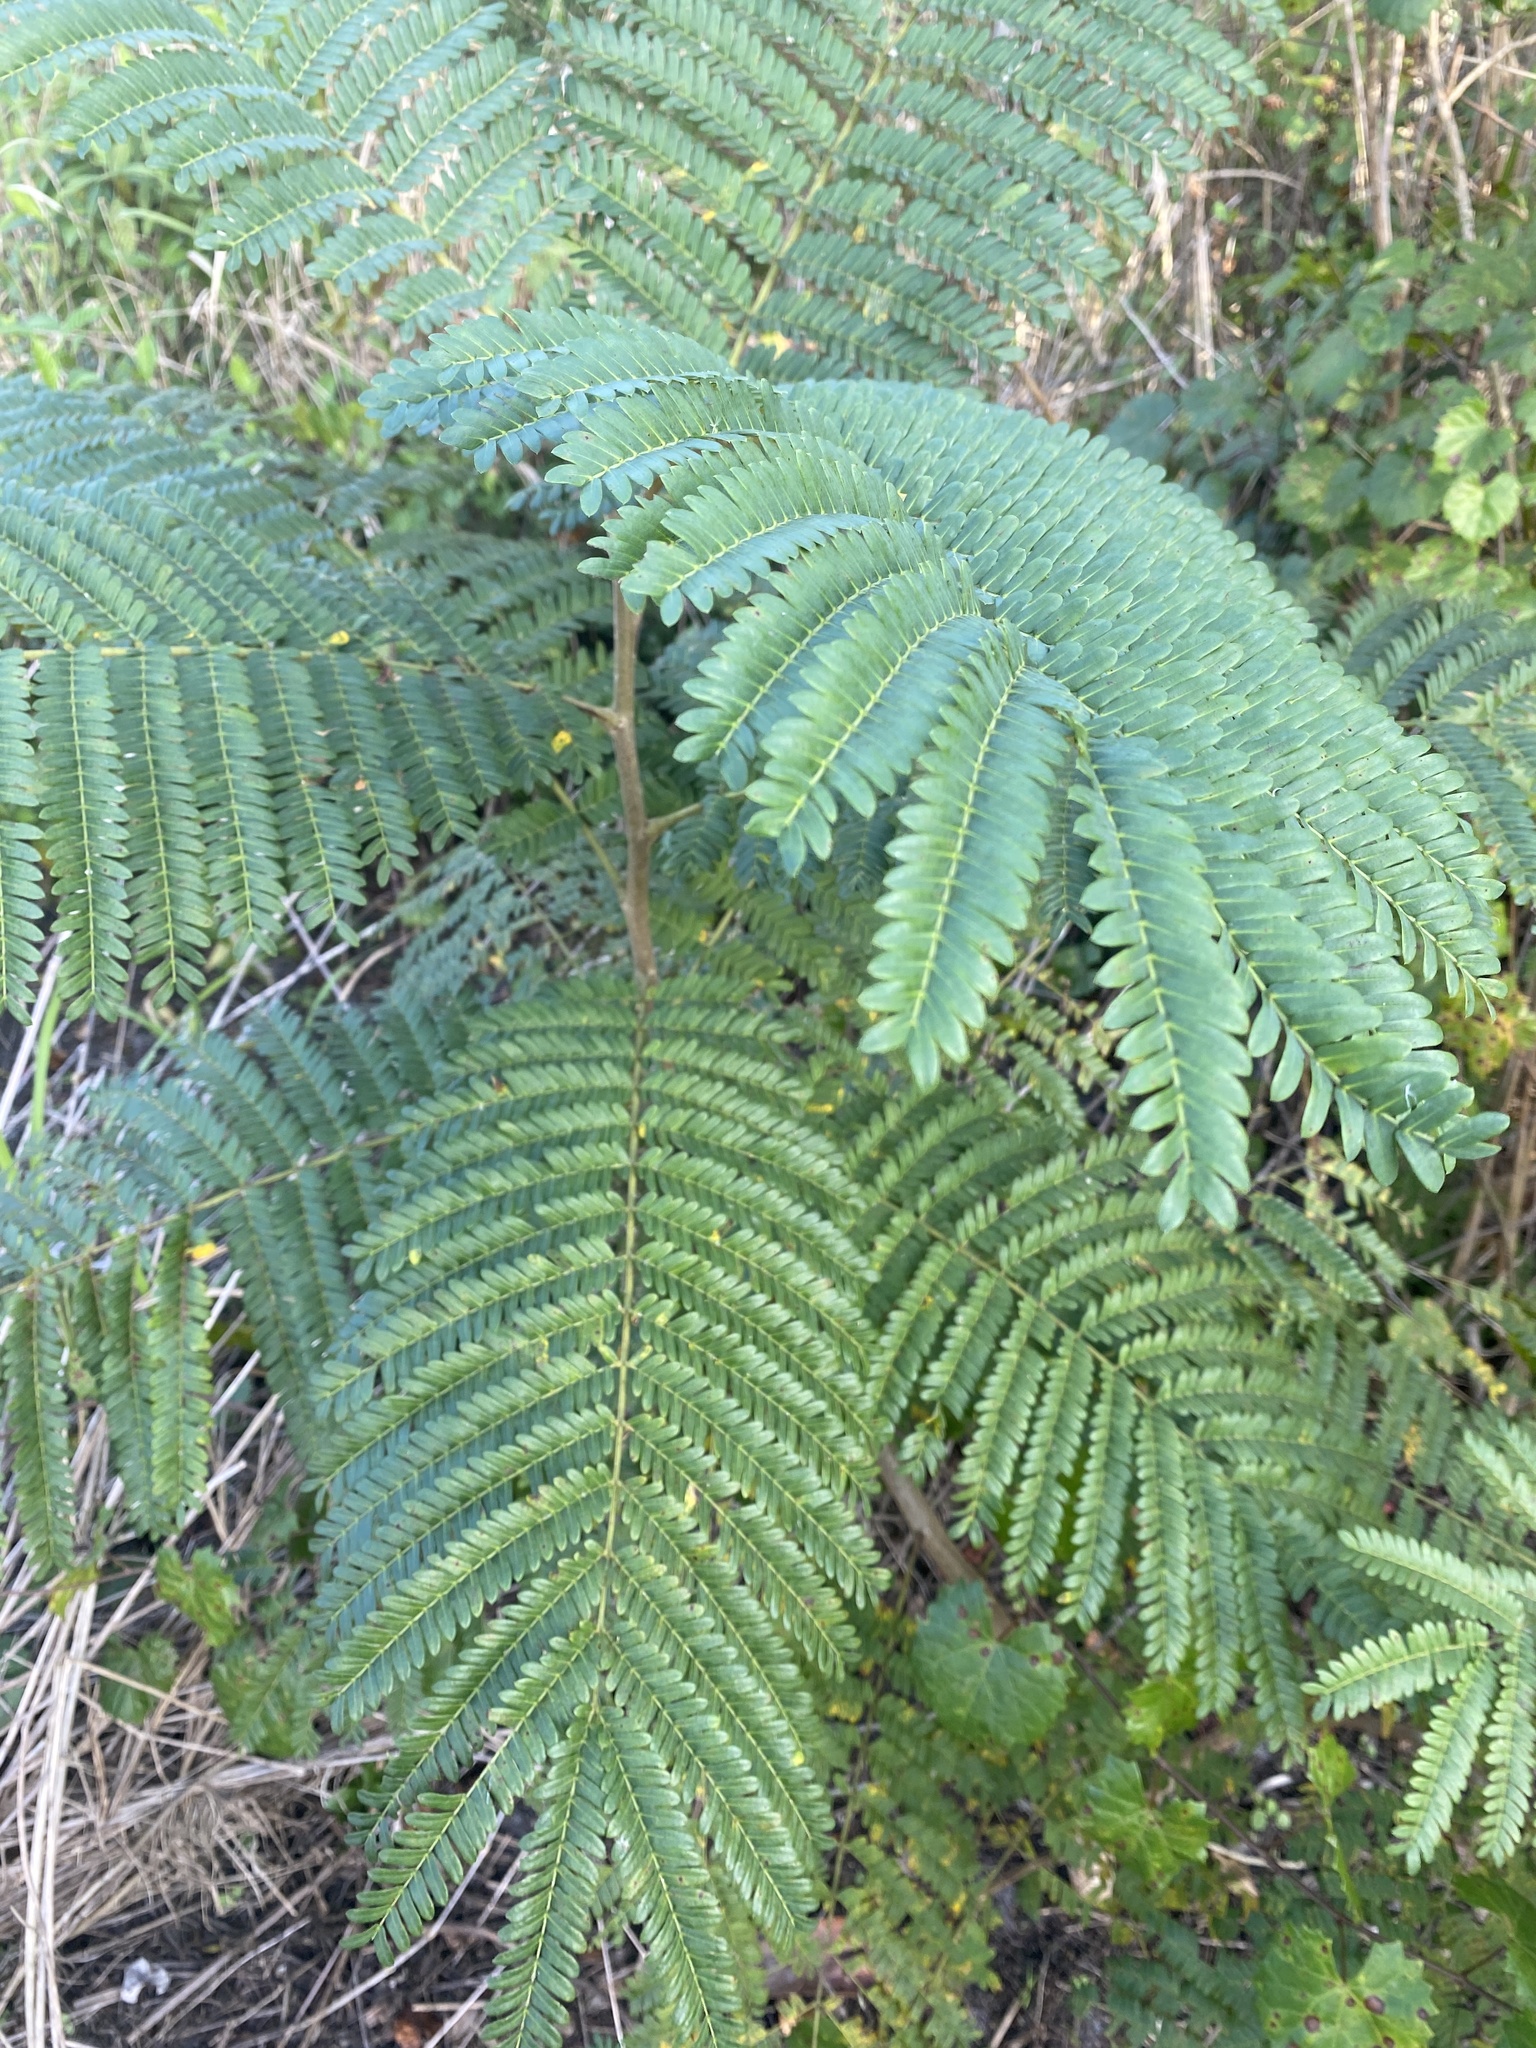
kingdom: Plantae
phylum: Tracheophyta
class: Magnoliopsida
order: Fabales
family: Fabaceae
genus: Delonix
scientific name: Delonix regia
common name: Royal poinciana
